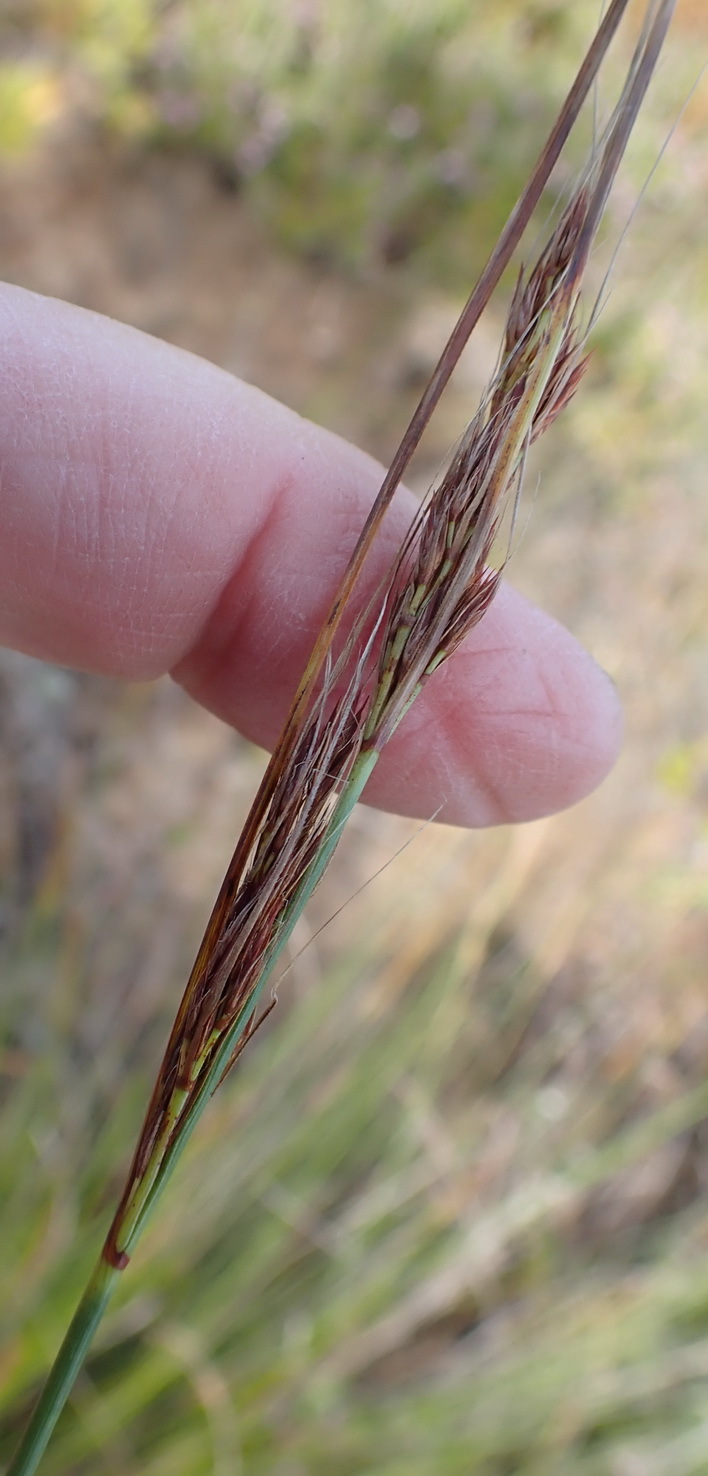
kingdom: Plantae
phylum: Tracheophyta
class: Liliopsida
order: Poales
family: Cyperaceae
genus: Schoenus
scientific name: Schoenus graciliculmis
